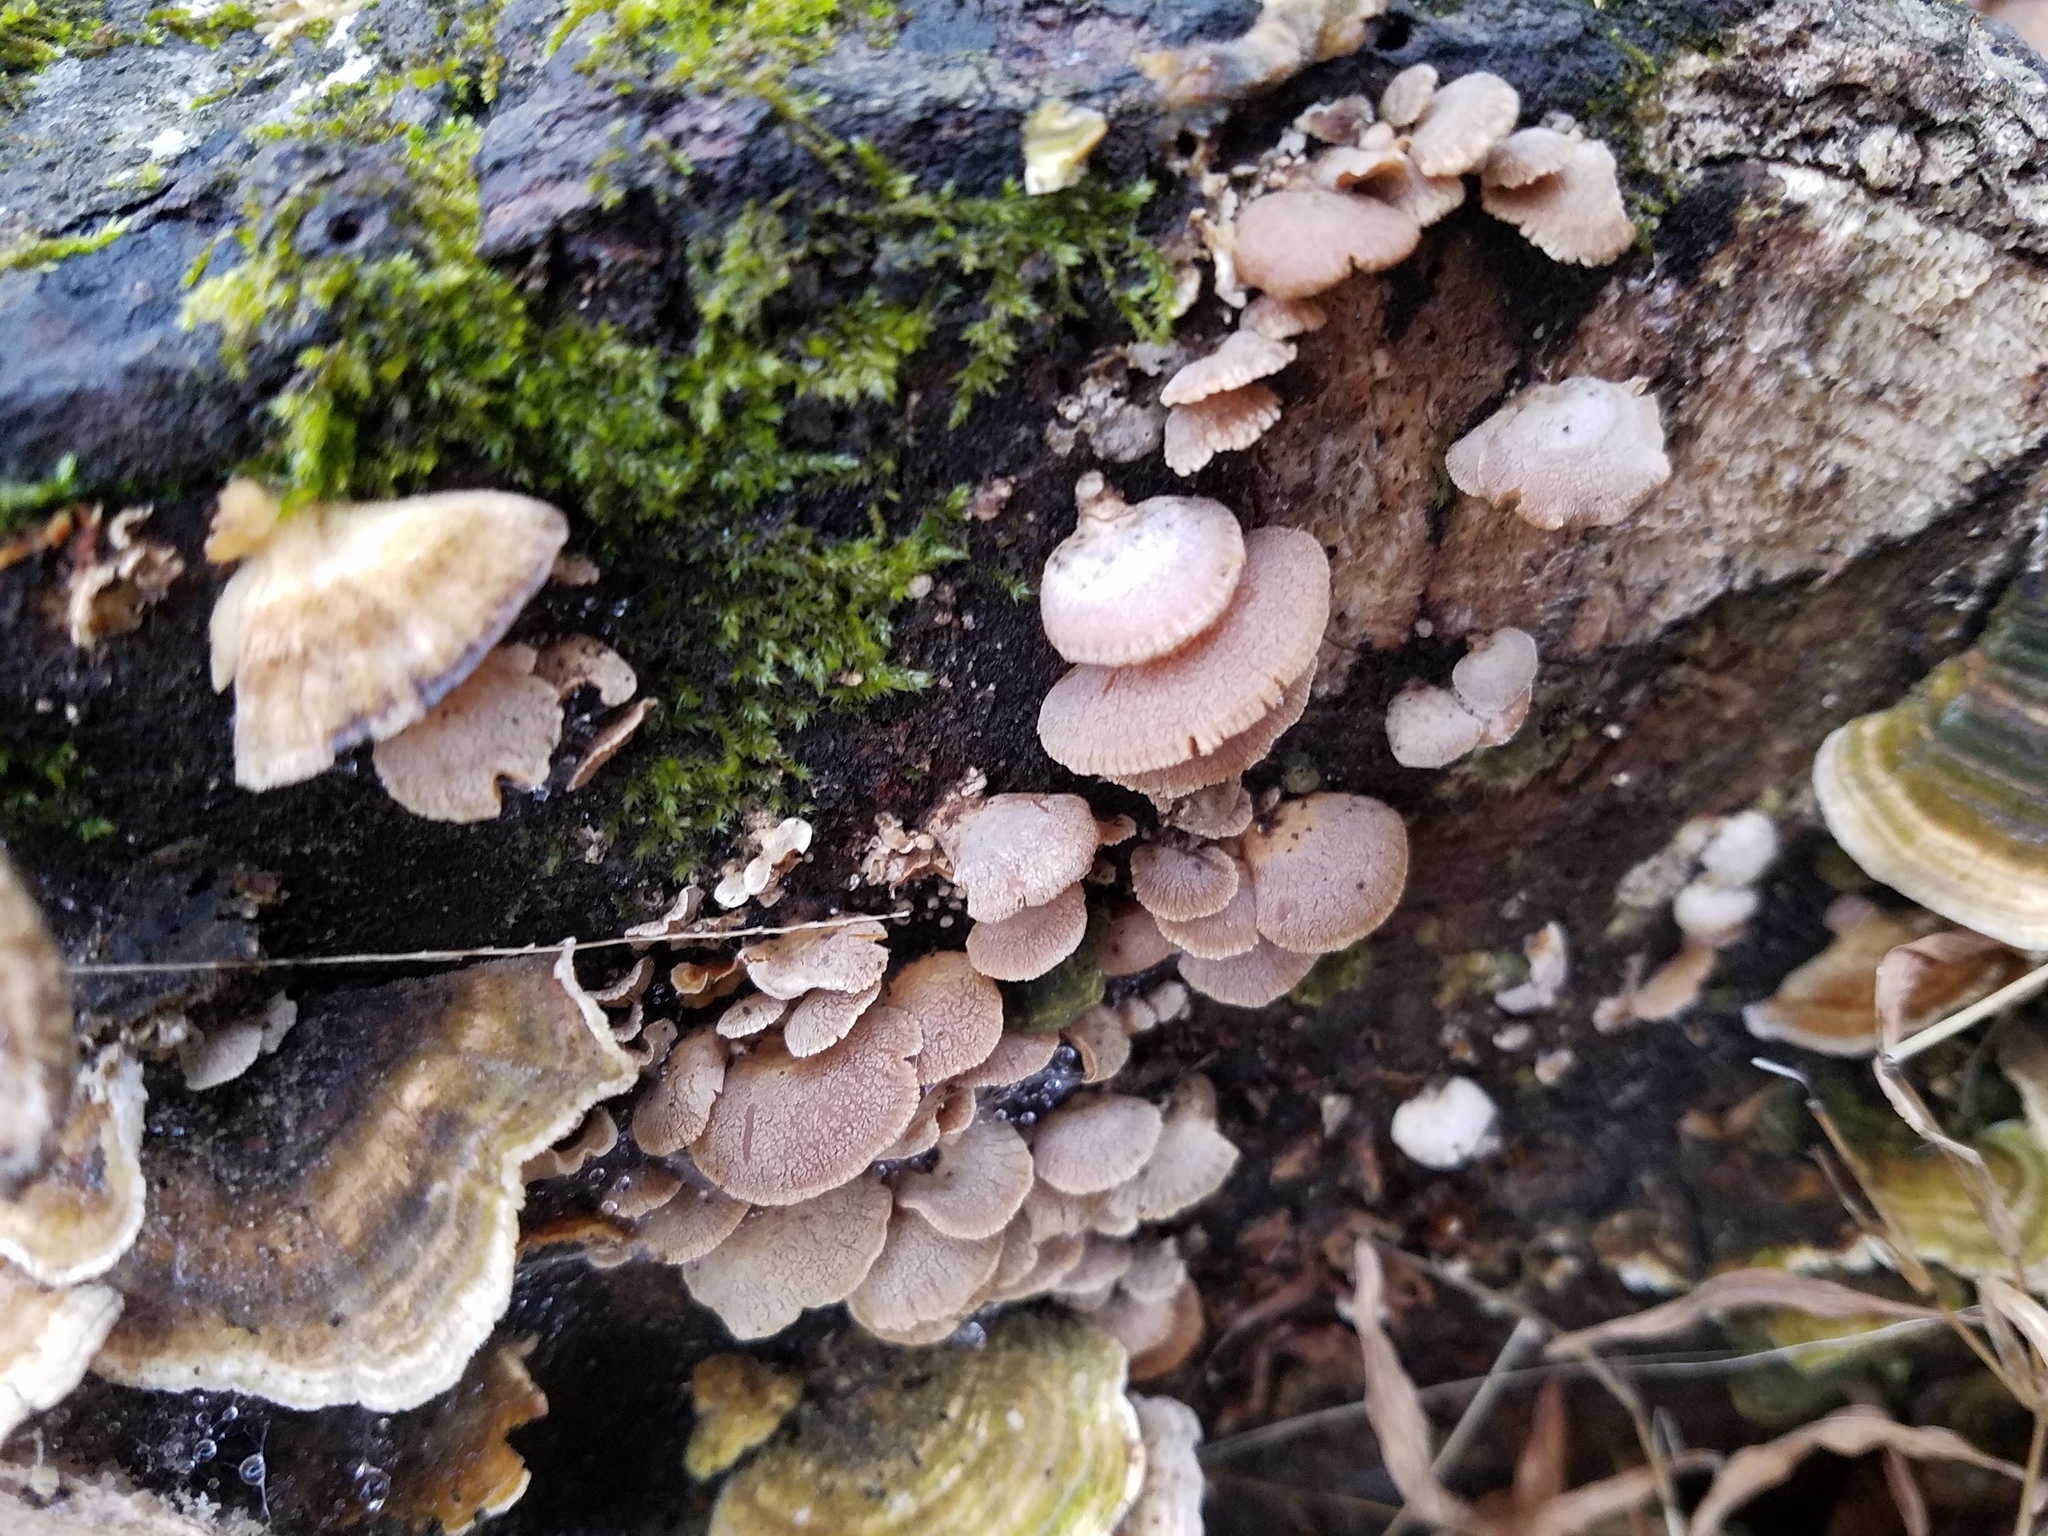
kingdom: Fungi
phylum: Basidiomycota
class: Agaricomycetes
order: Agaricales
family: Mycenaceae
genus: Panellus
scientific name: Panellus stipticus
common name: Bitter oysterling
